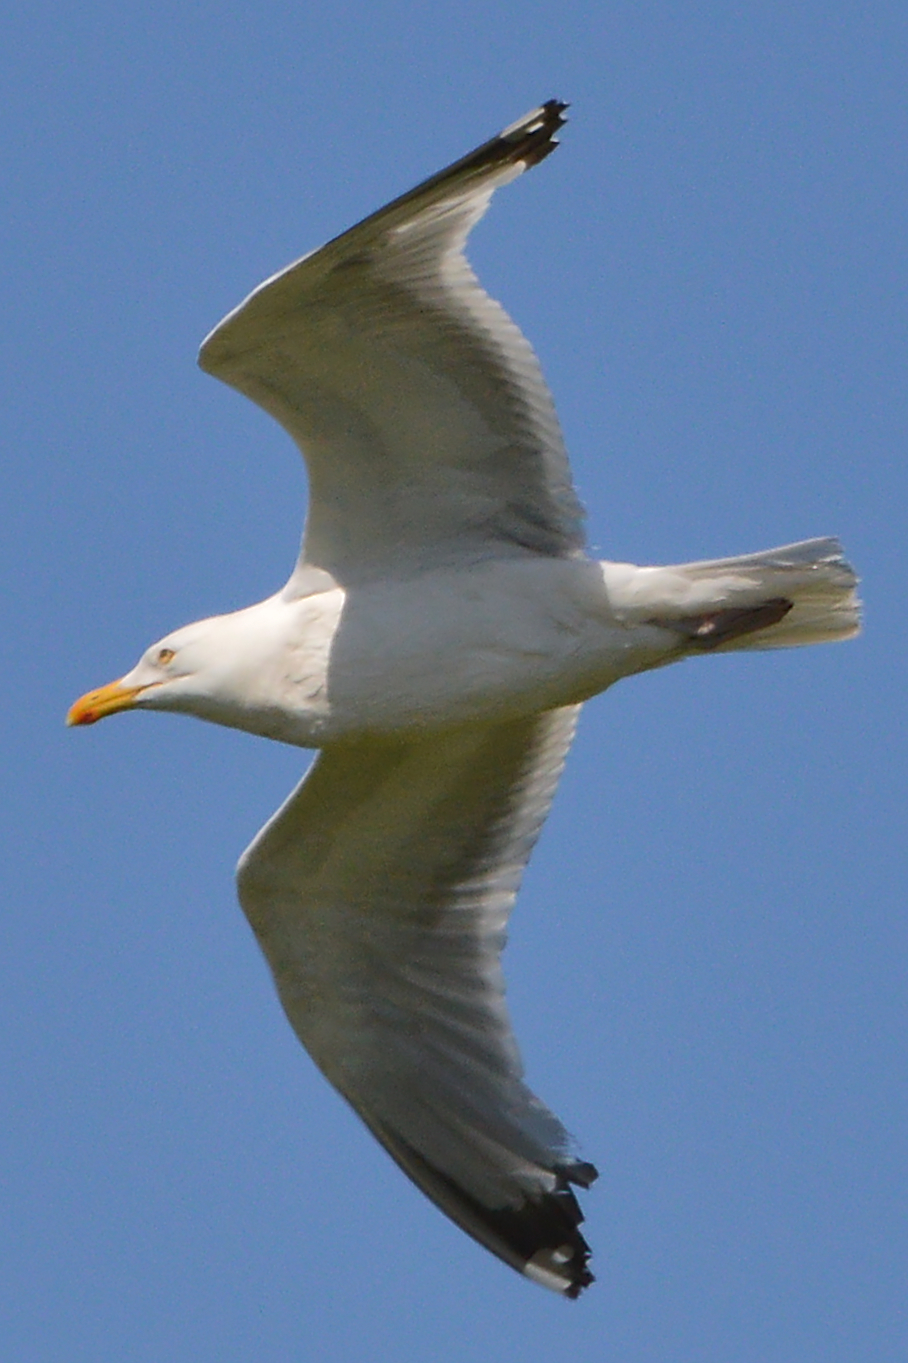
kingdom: Animalia
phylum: Chordata
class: Aves
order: Charadriiformes
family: Laridae
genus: Larus
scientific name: Larus argentatus
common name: Herring gull
